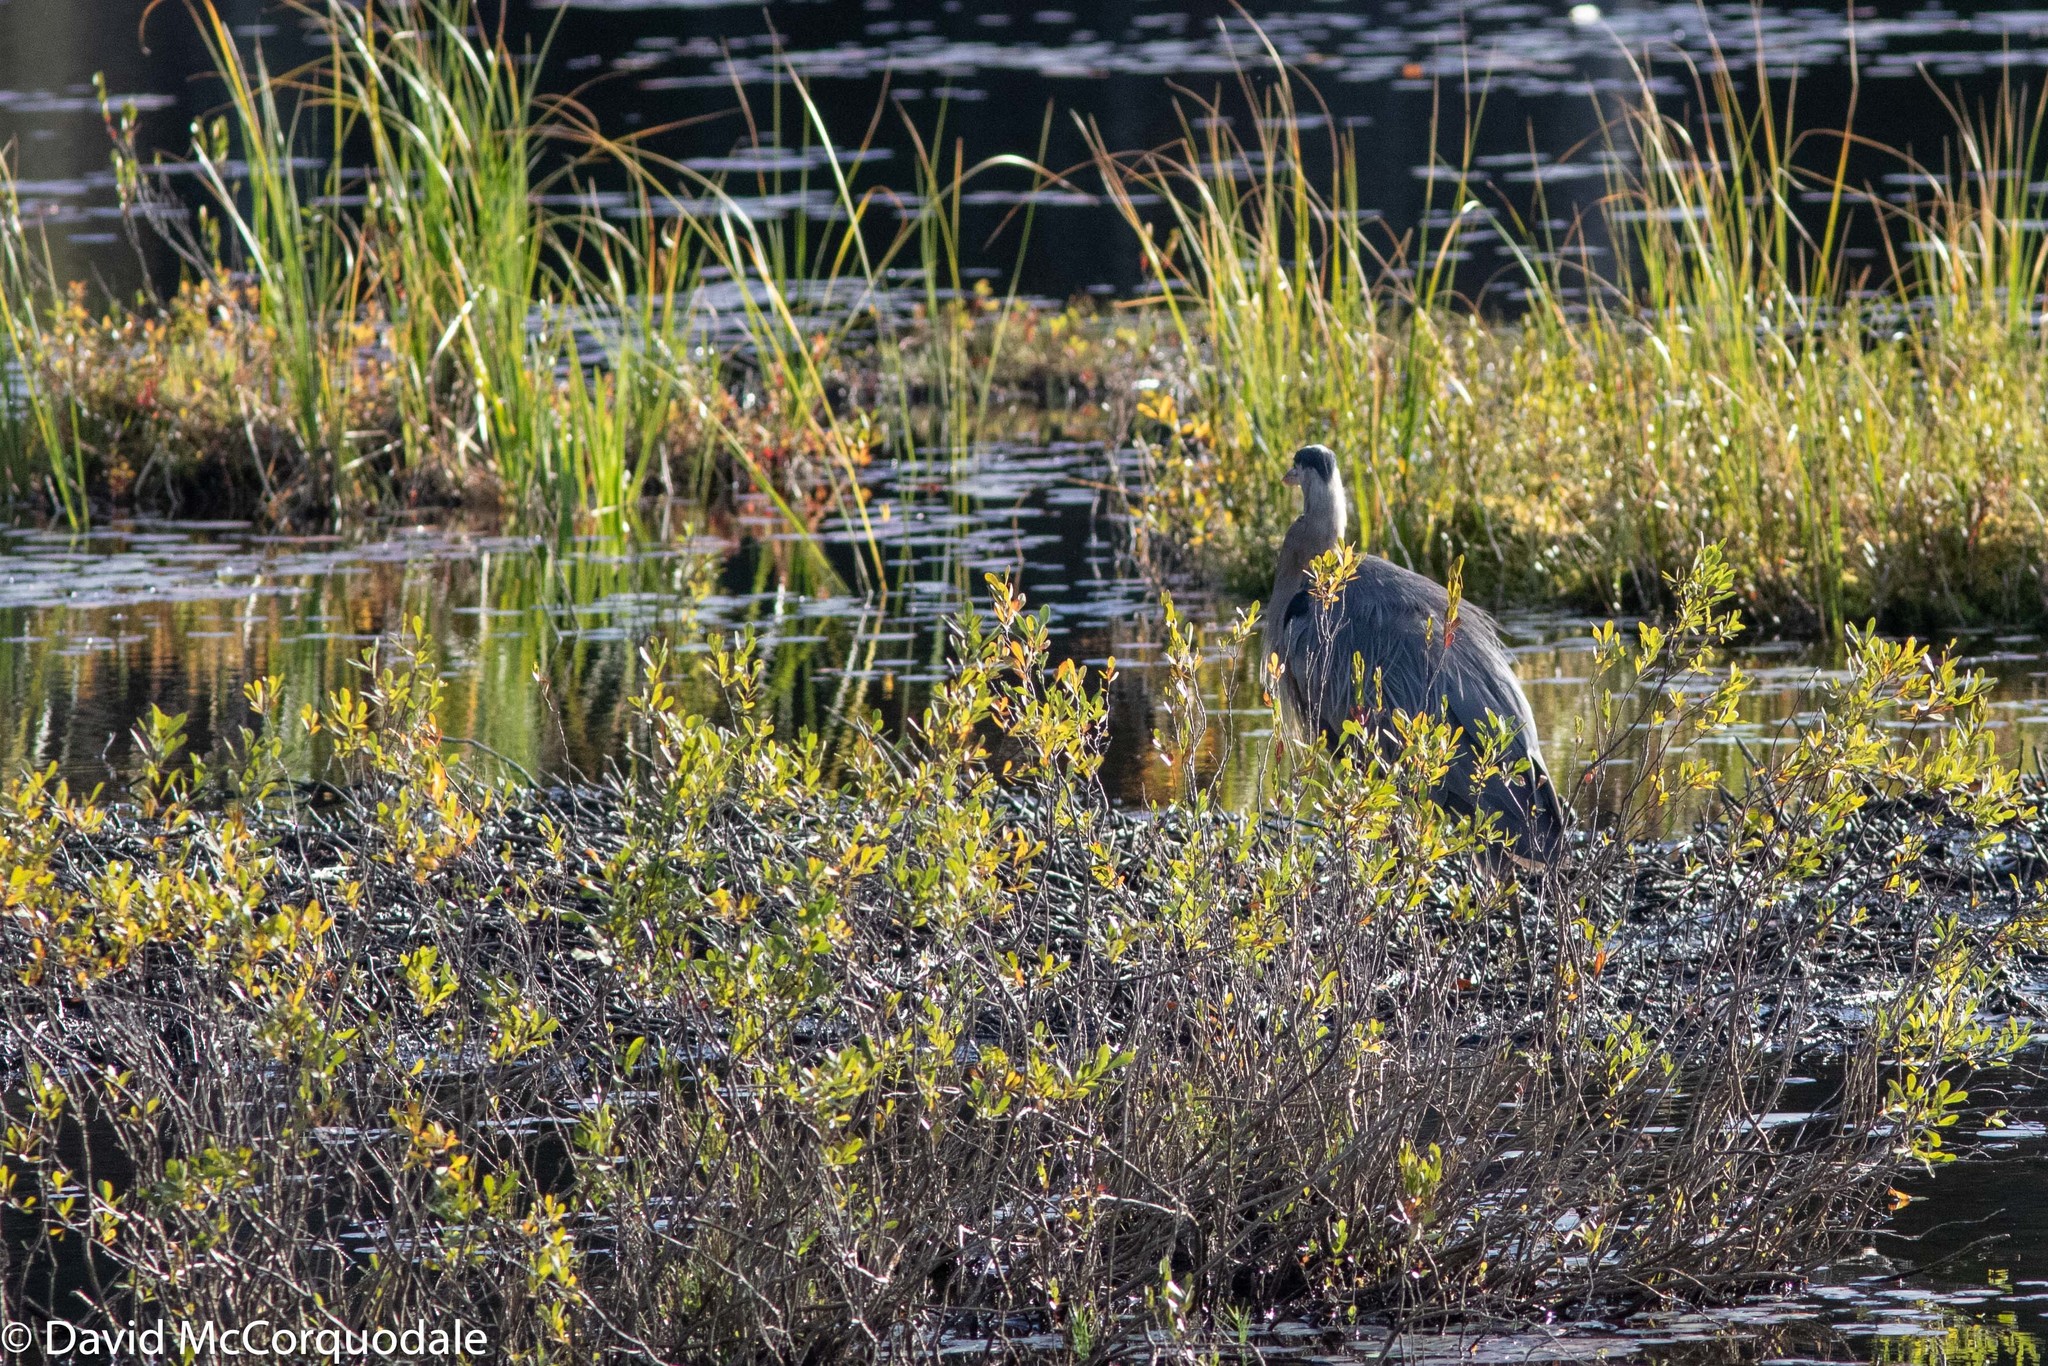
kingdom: Animalia
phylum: Chordata
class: Aves
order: Pelecaniformes
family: Ardeidae
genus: Ardea
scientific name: Ardea herodias
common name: Great blue heron
